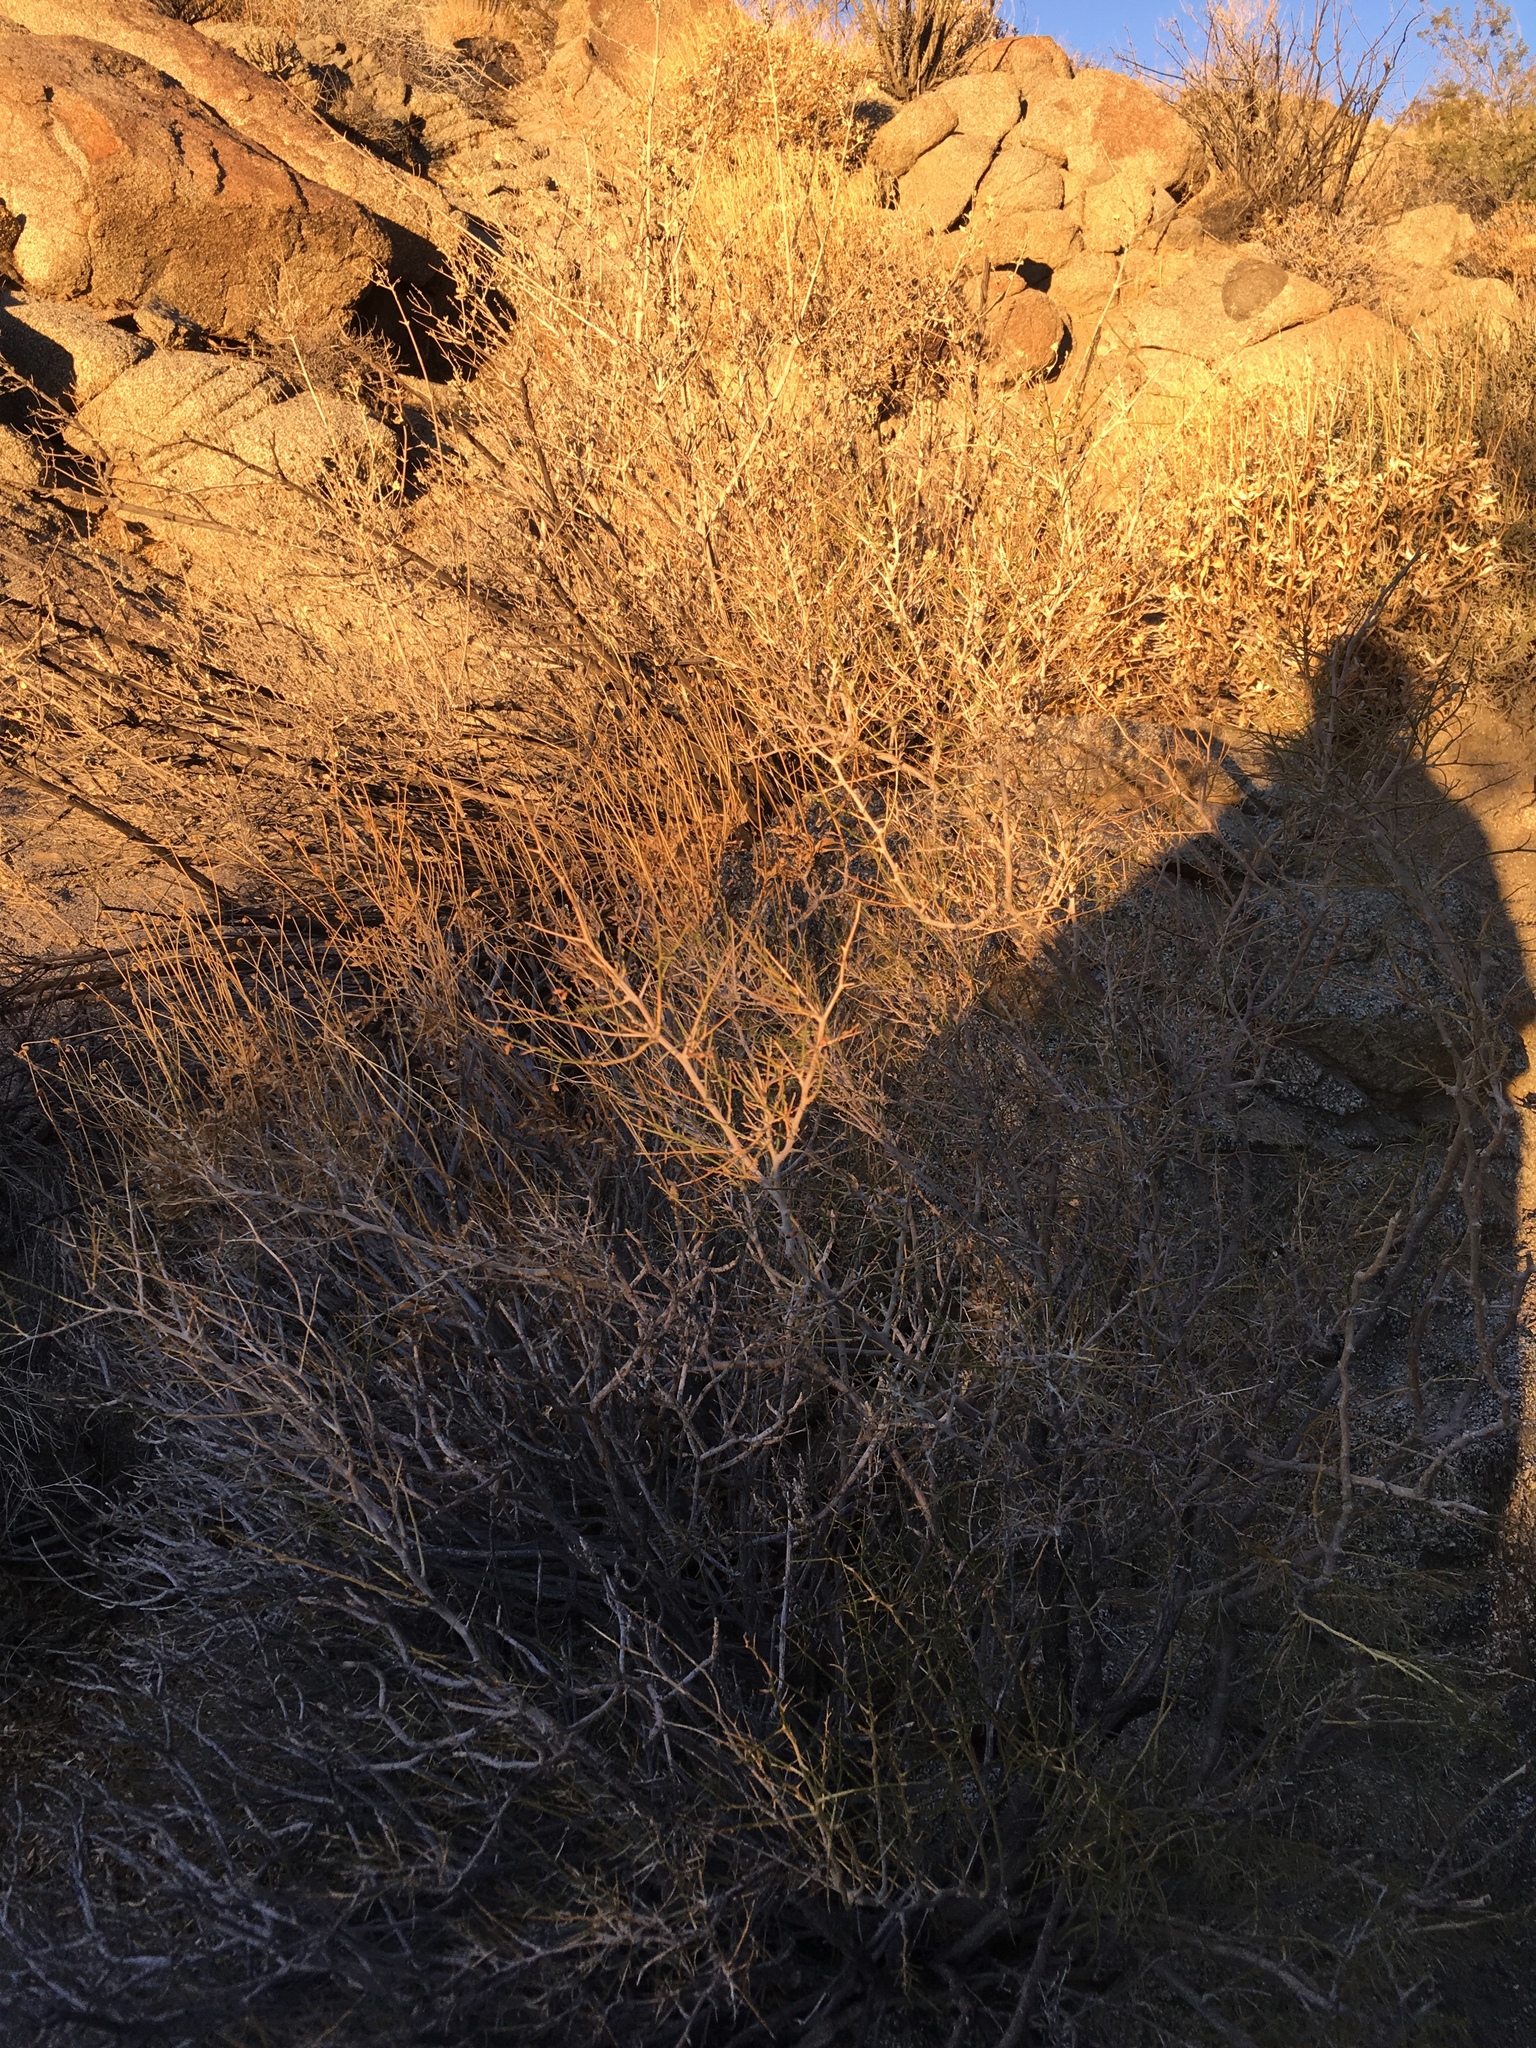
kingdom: Plantae
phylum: Tracheophyta
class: Magnoliopsida
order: Fabales
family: Fabaceae
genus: Psorothamnus
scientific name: Psorothamnus schottii
